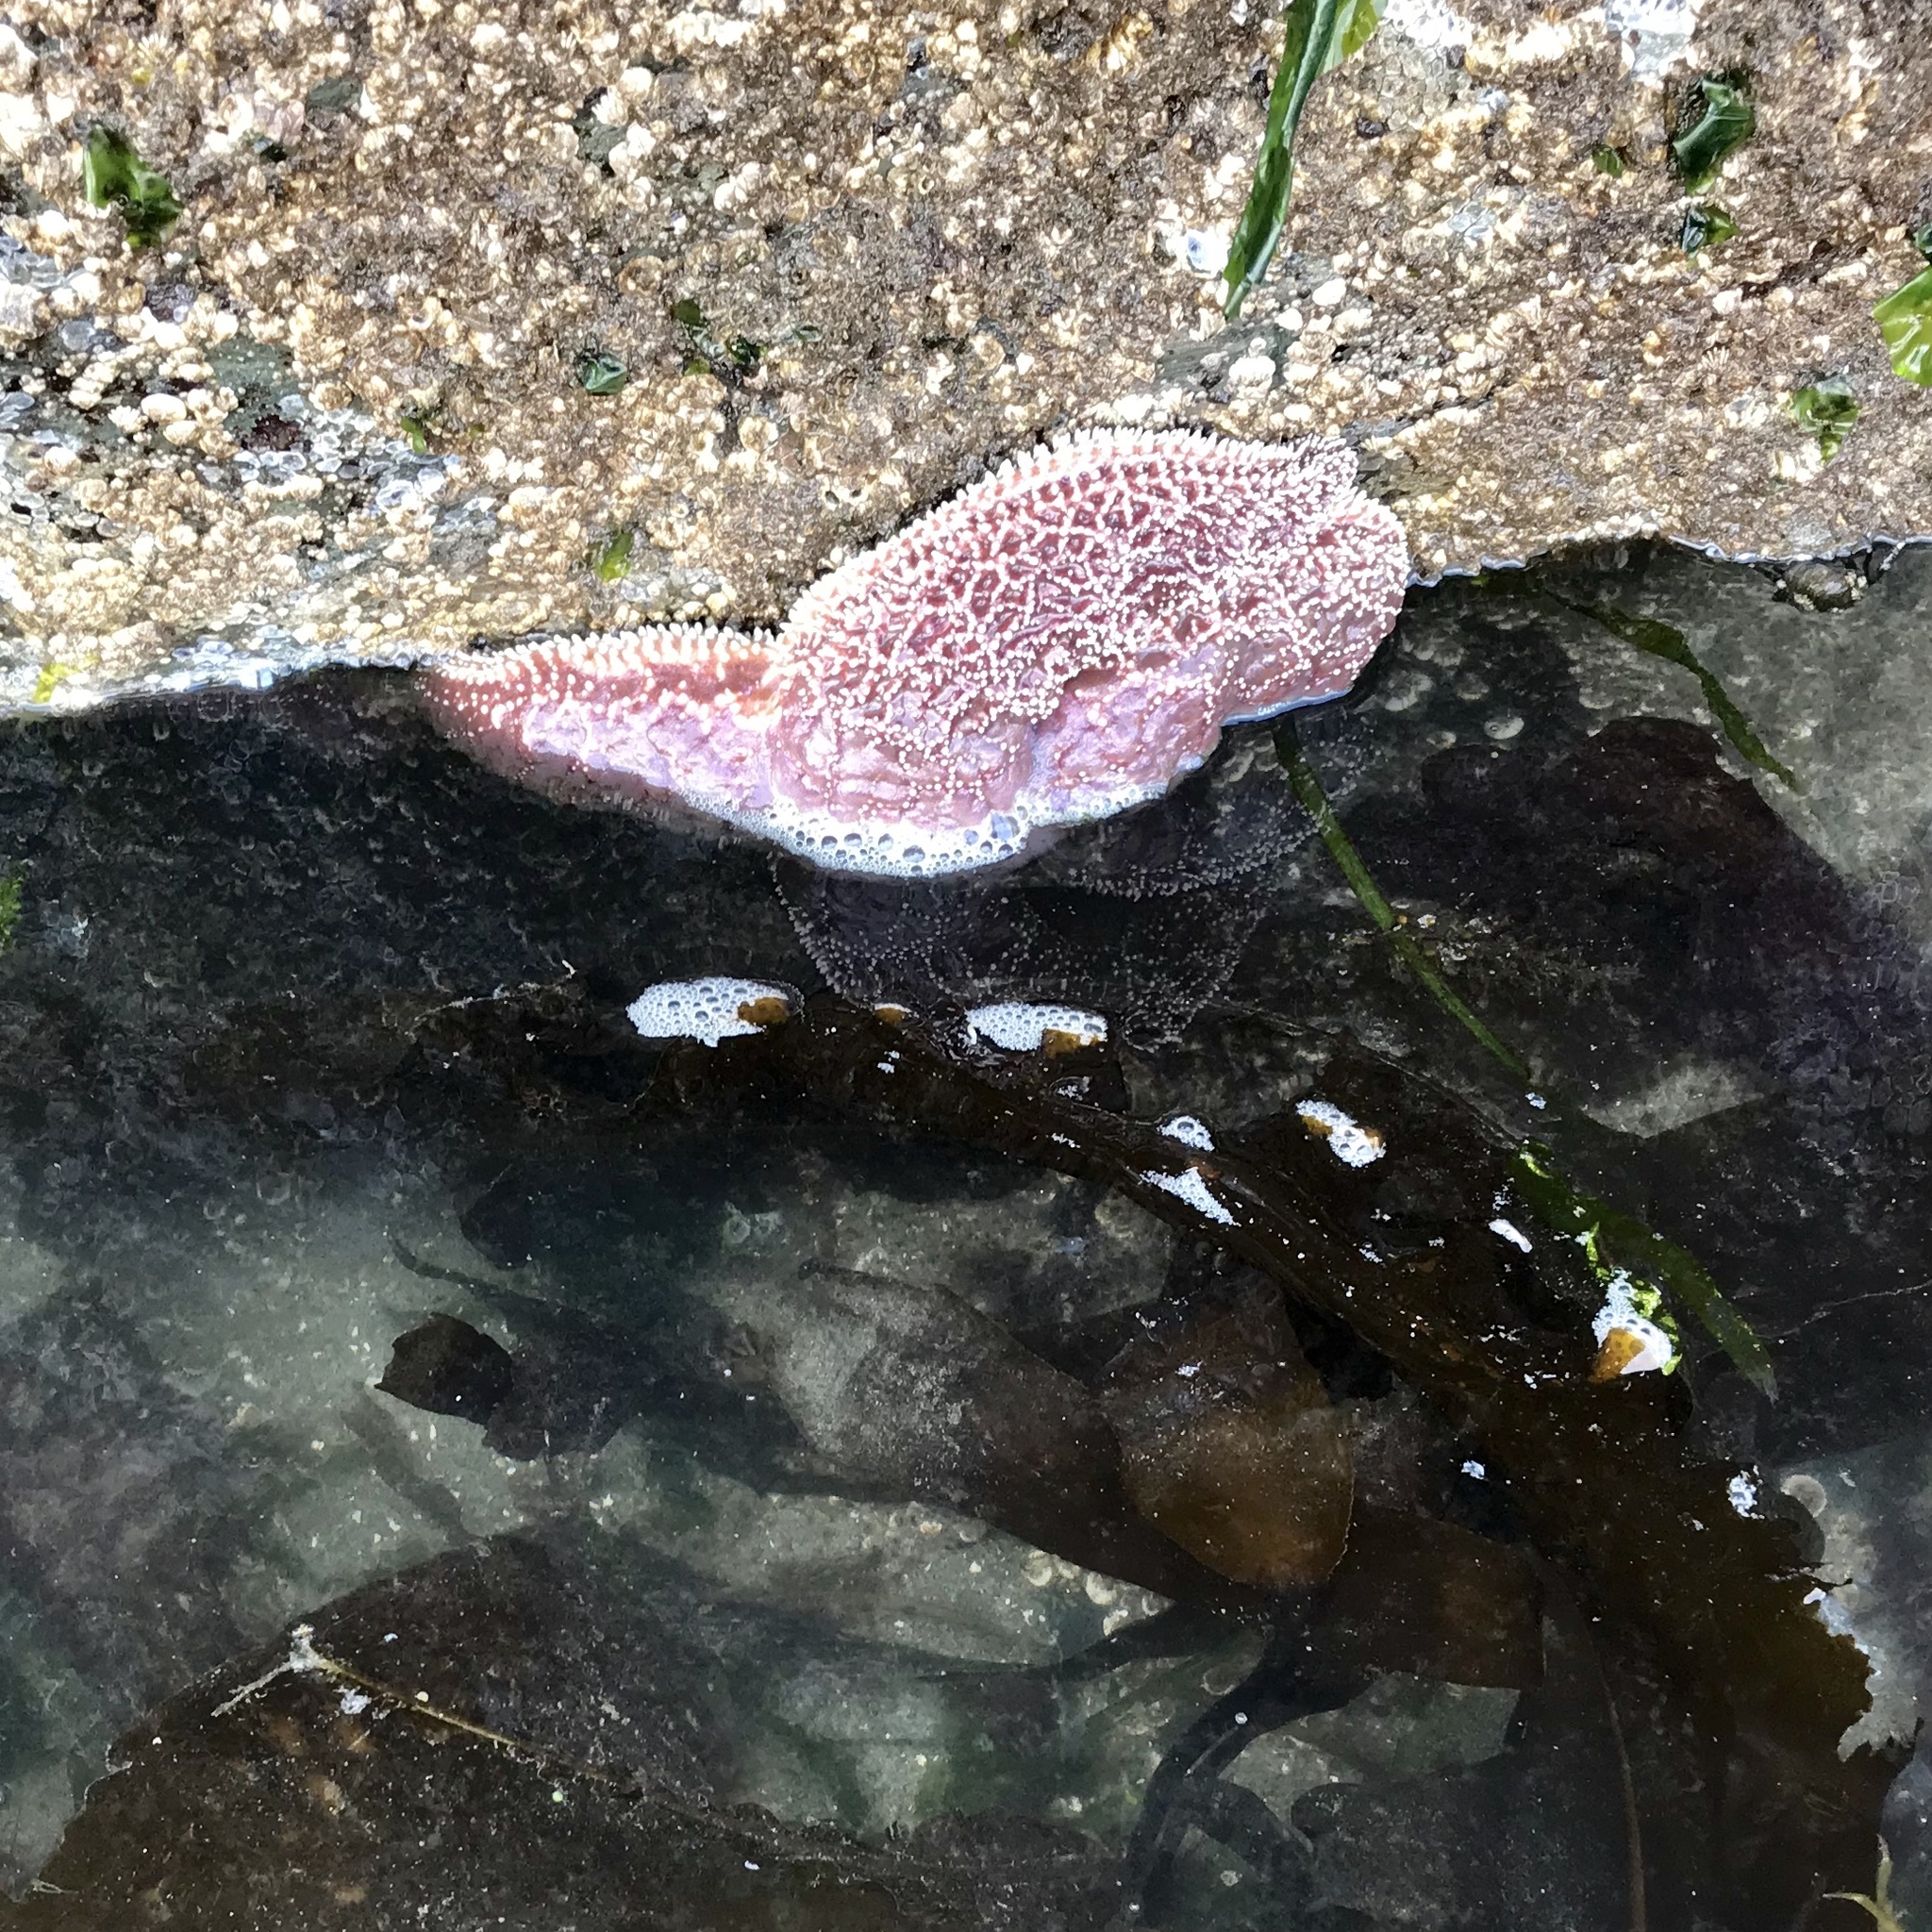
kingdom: Animalia
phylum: Echinodermata
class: Asteroidea
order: Forcipulatida
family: Asteriidae
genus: Pisaster
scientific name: Pisaster ochraceus
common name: Ochre stars
